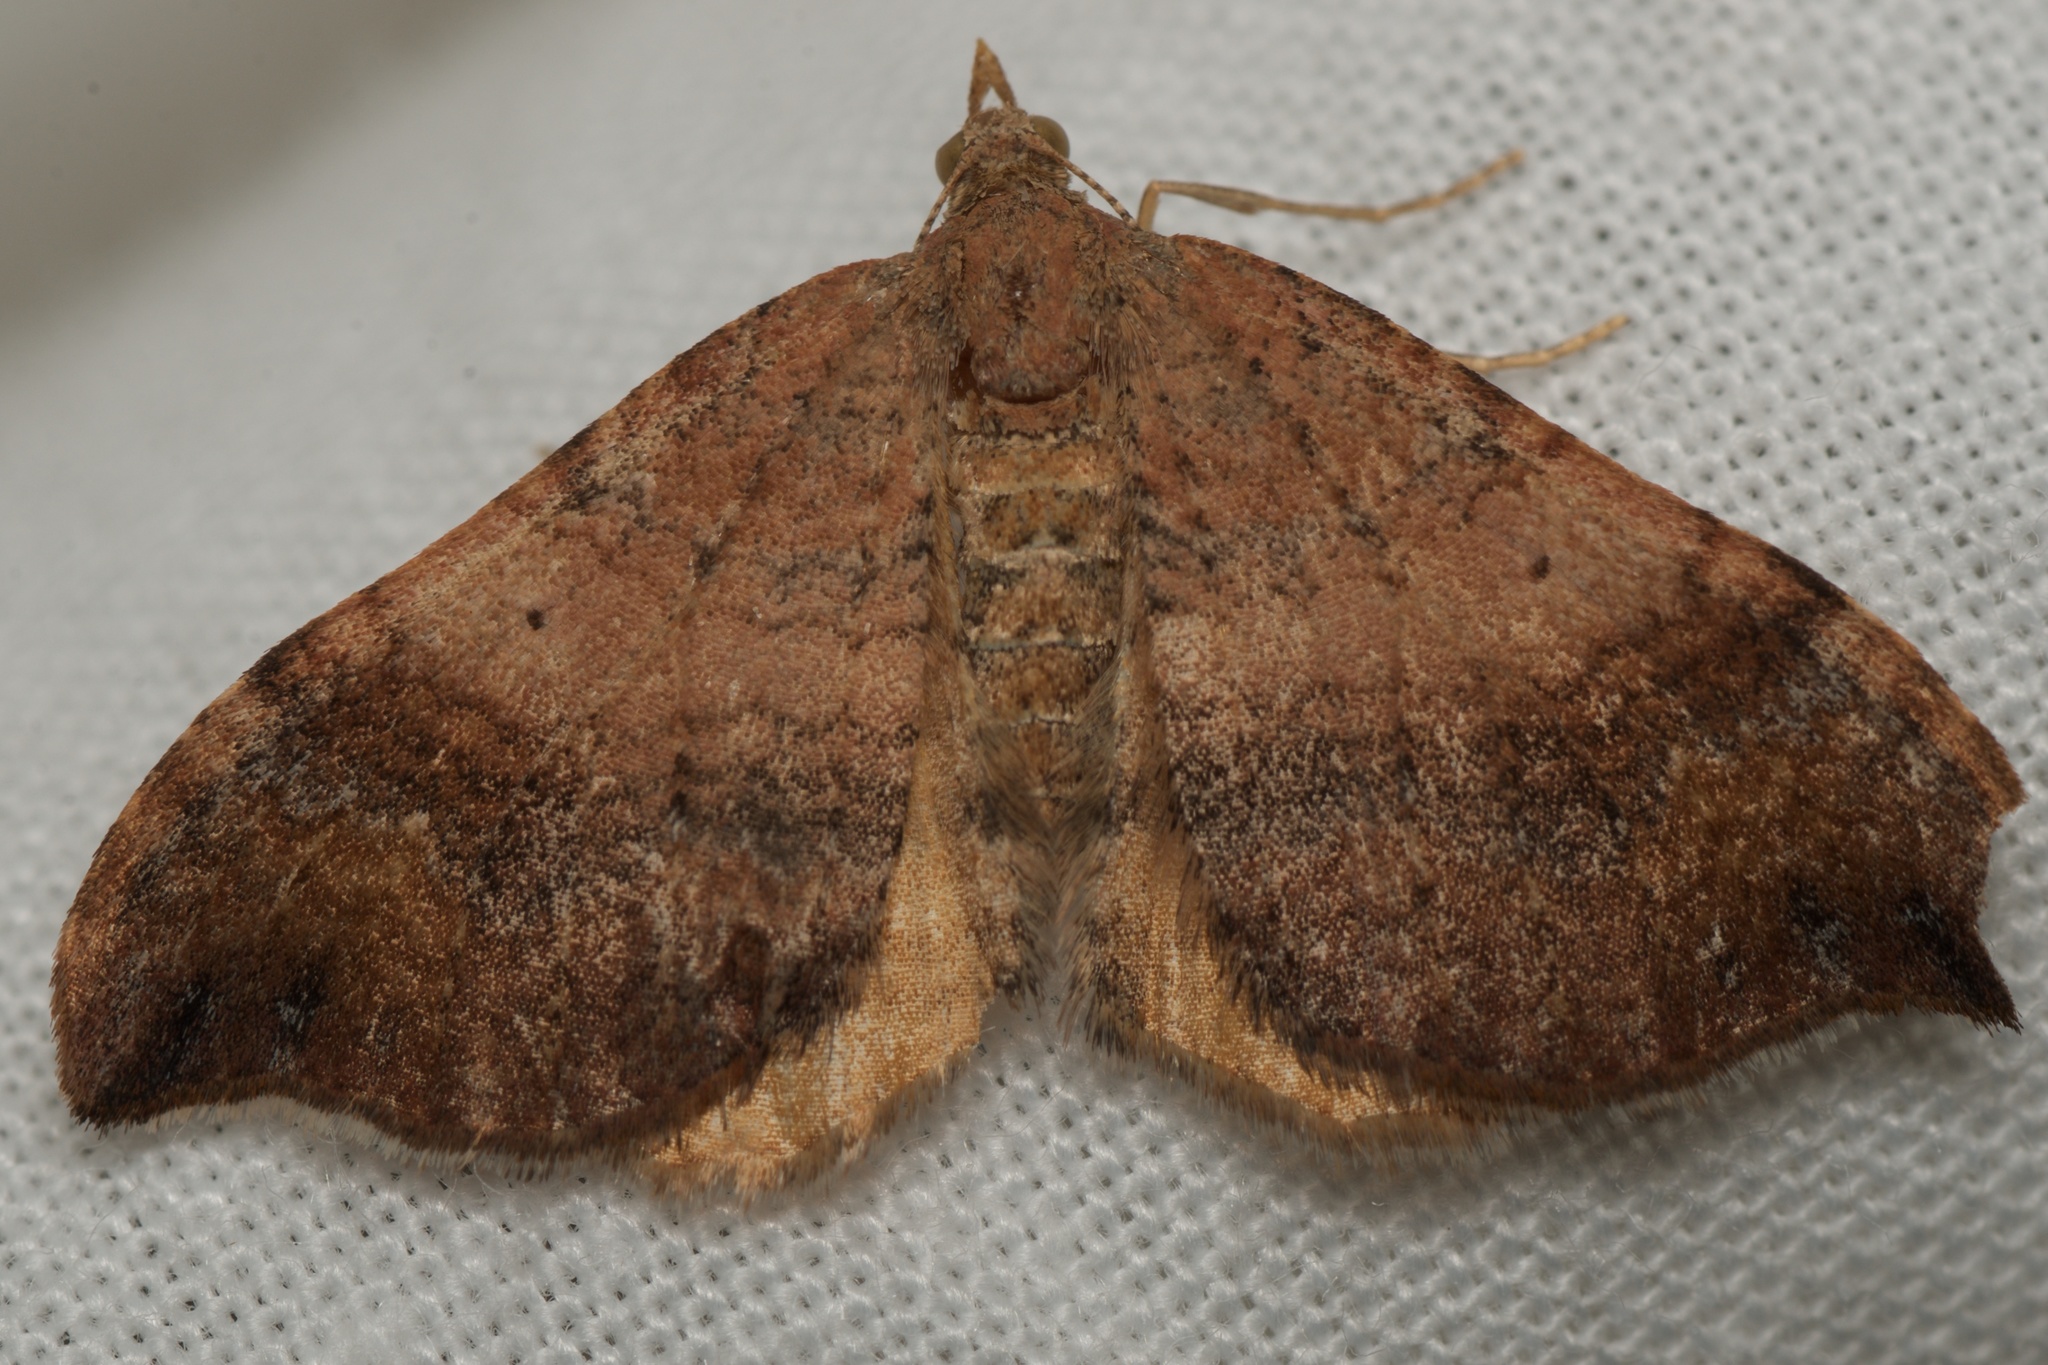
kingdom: Animalia
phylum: Arthropoda
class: Insecta
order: Lepidoptera
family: Geometridae
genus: Homodotis
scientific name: Homodotis megaspilata
